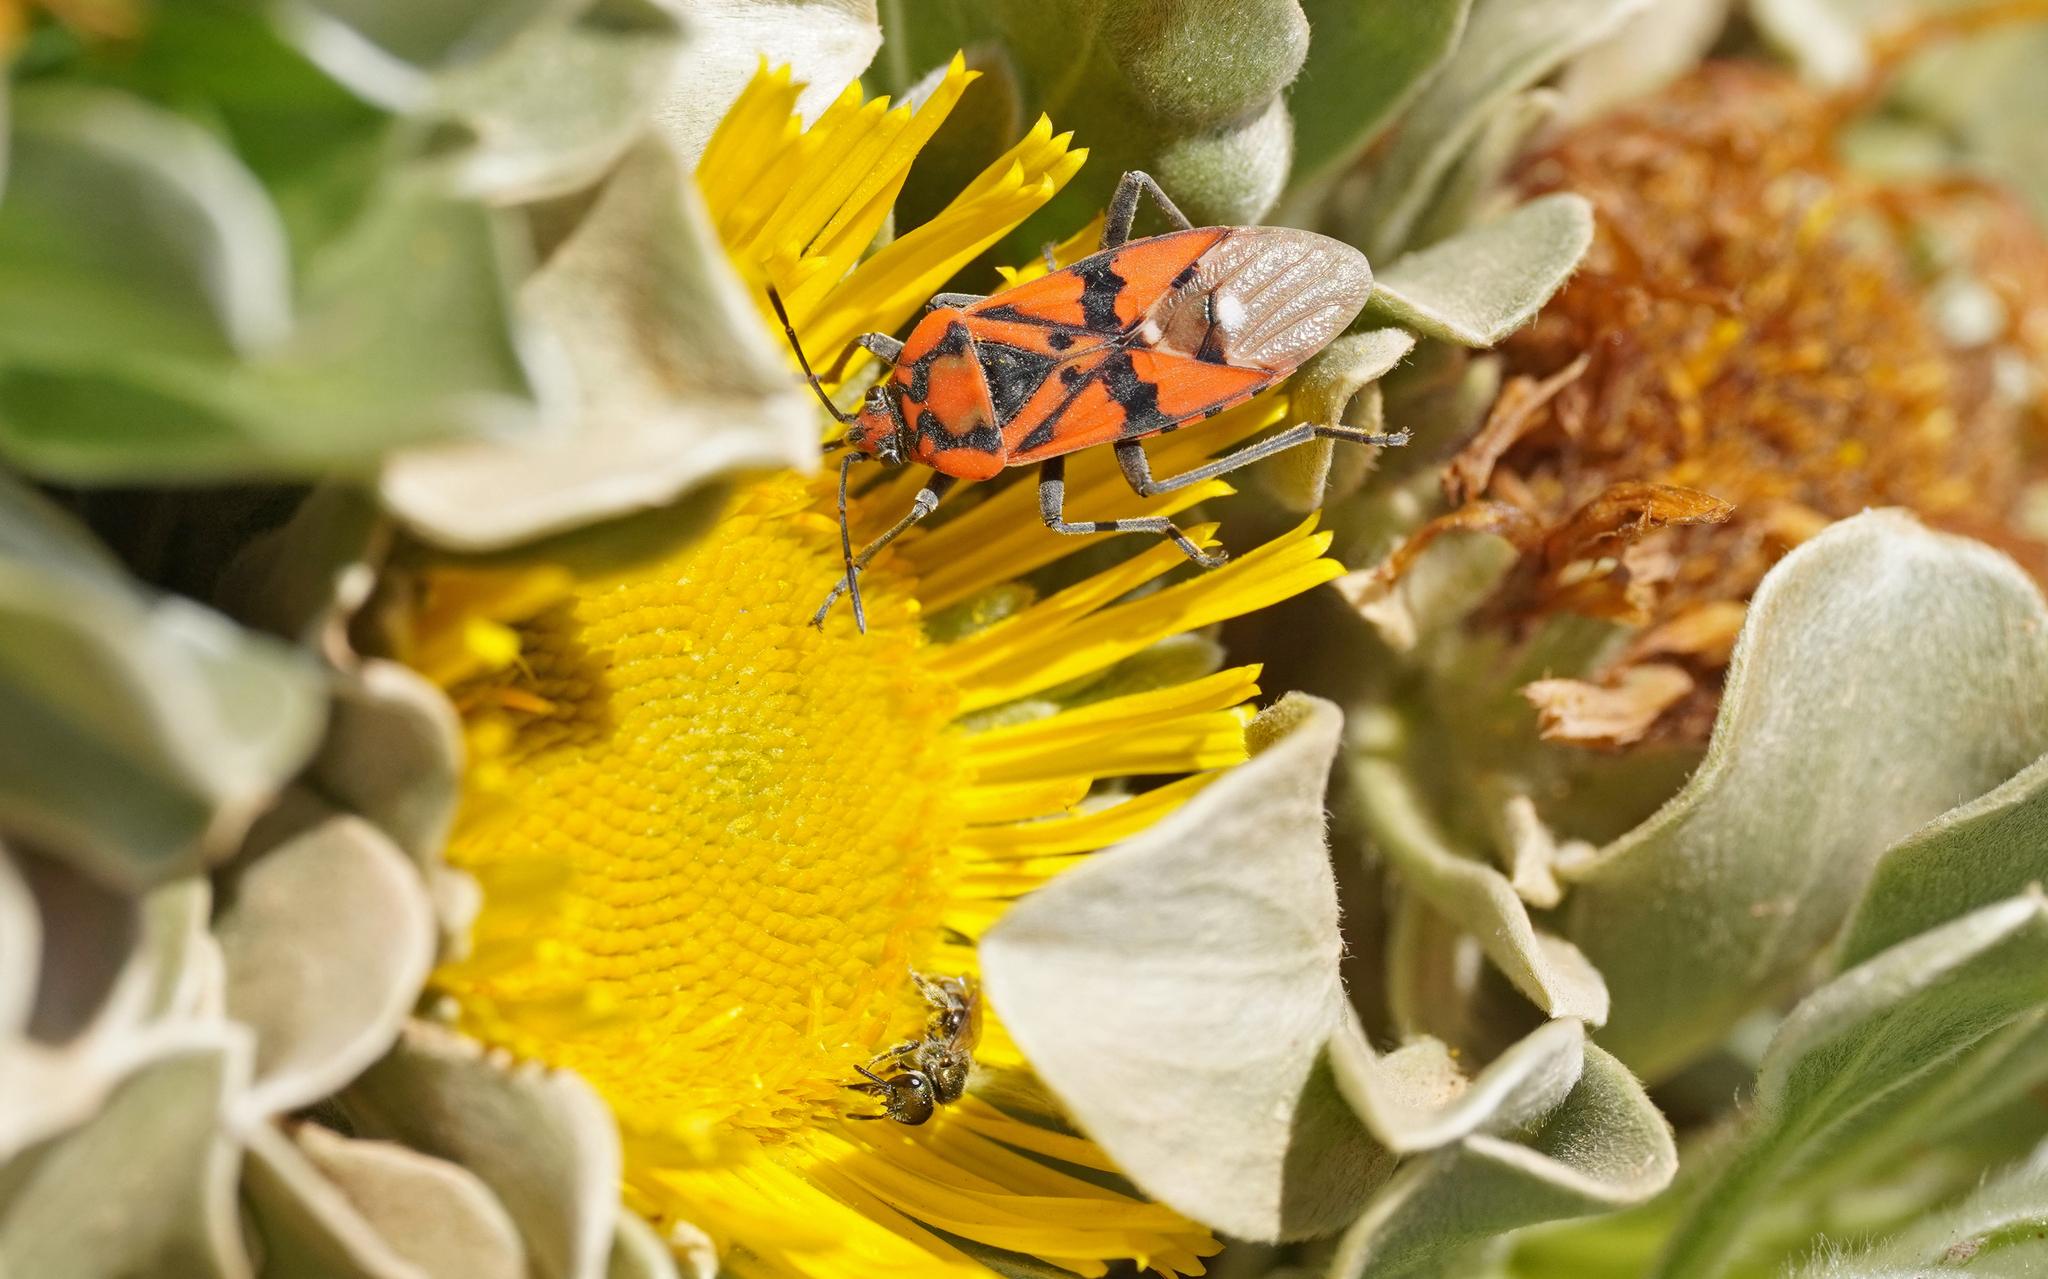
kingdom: Animalia
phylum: Arthropoda
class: Insecta
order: Hemiptera
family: Lygaeidae
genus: Spilostethus
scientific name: Spilostethus pandurus
